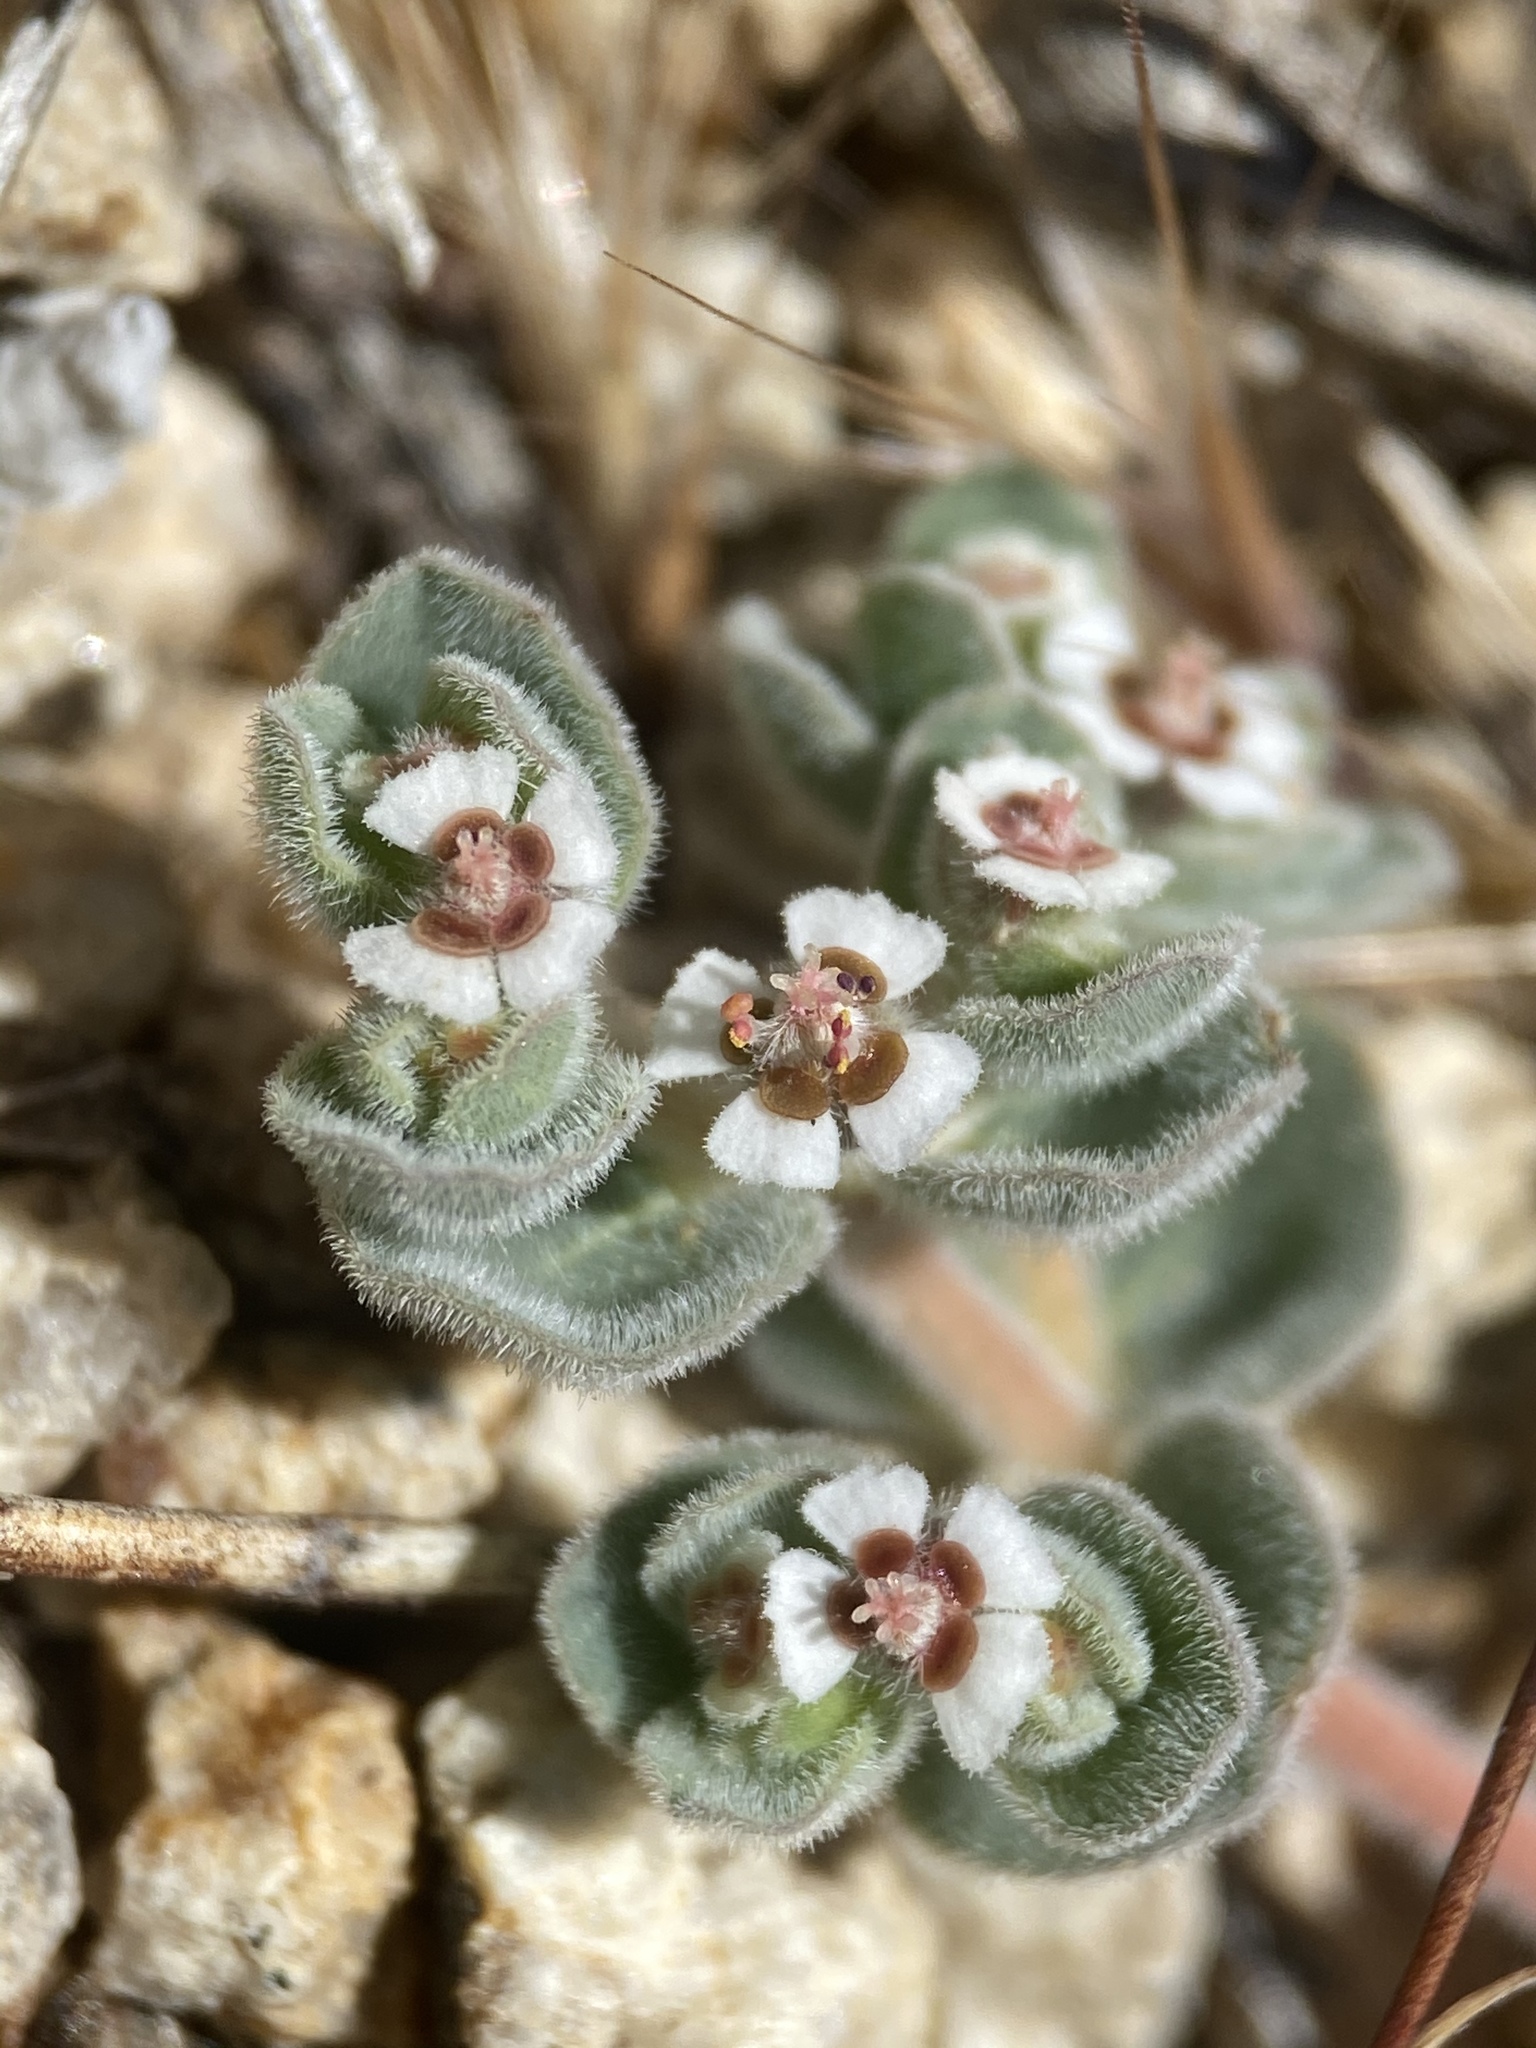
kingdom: Plantae
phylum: Tracheophyta
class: Magnoliopsida
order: Malpighiales
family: Euphorbiaceae
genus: Euphorbia
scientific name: Euphorbia vallis-mortae
